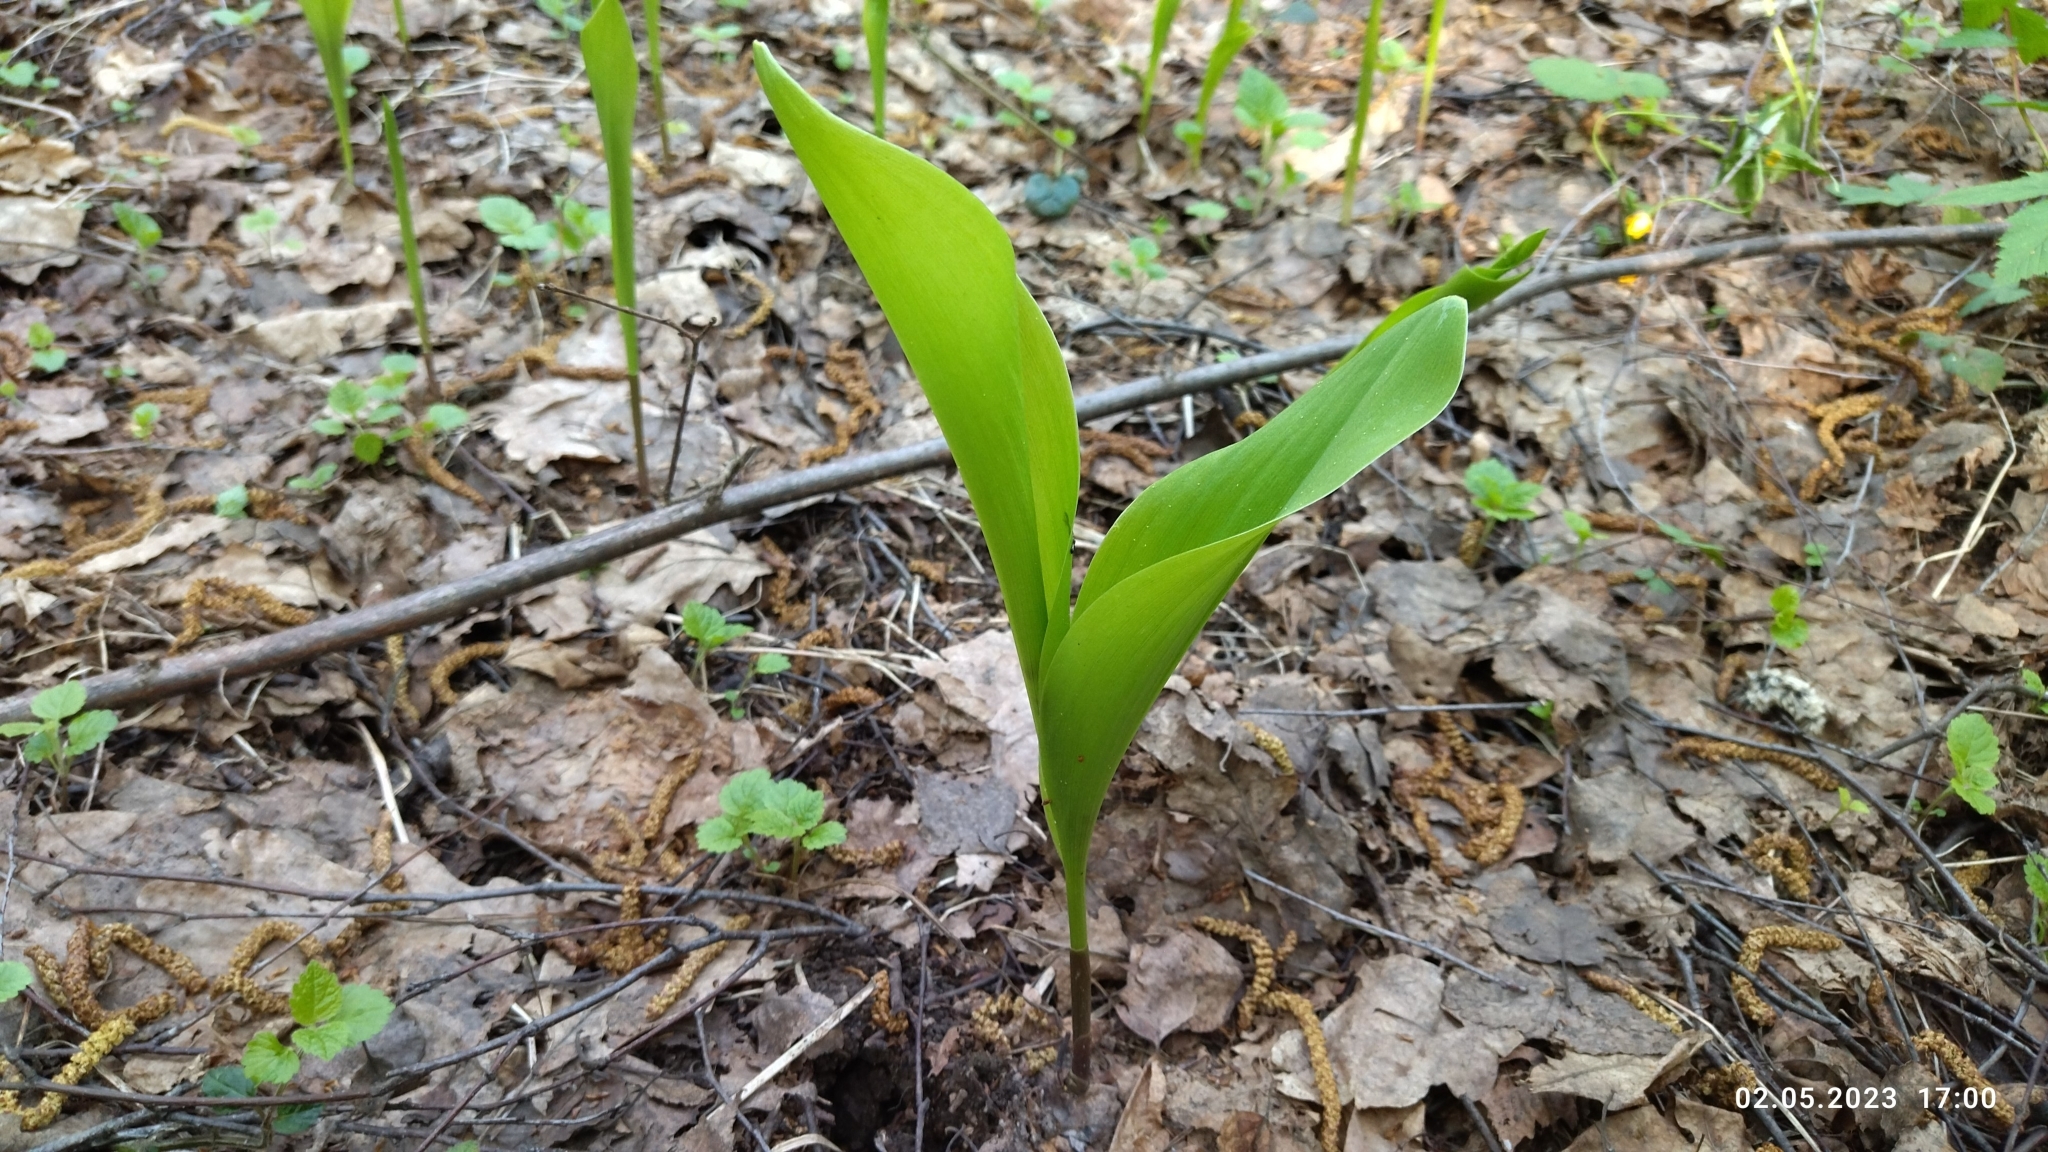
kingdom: Plantae
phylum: Tracheophyta
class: Liliopsida
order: Asparagales
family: Asparagaceae
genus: Convallaria
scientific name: Convallaria majalis
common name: Lily-of-the-valley
